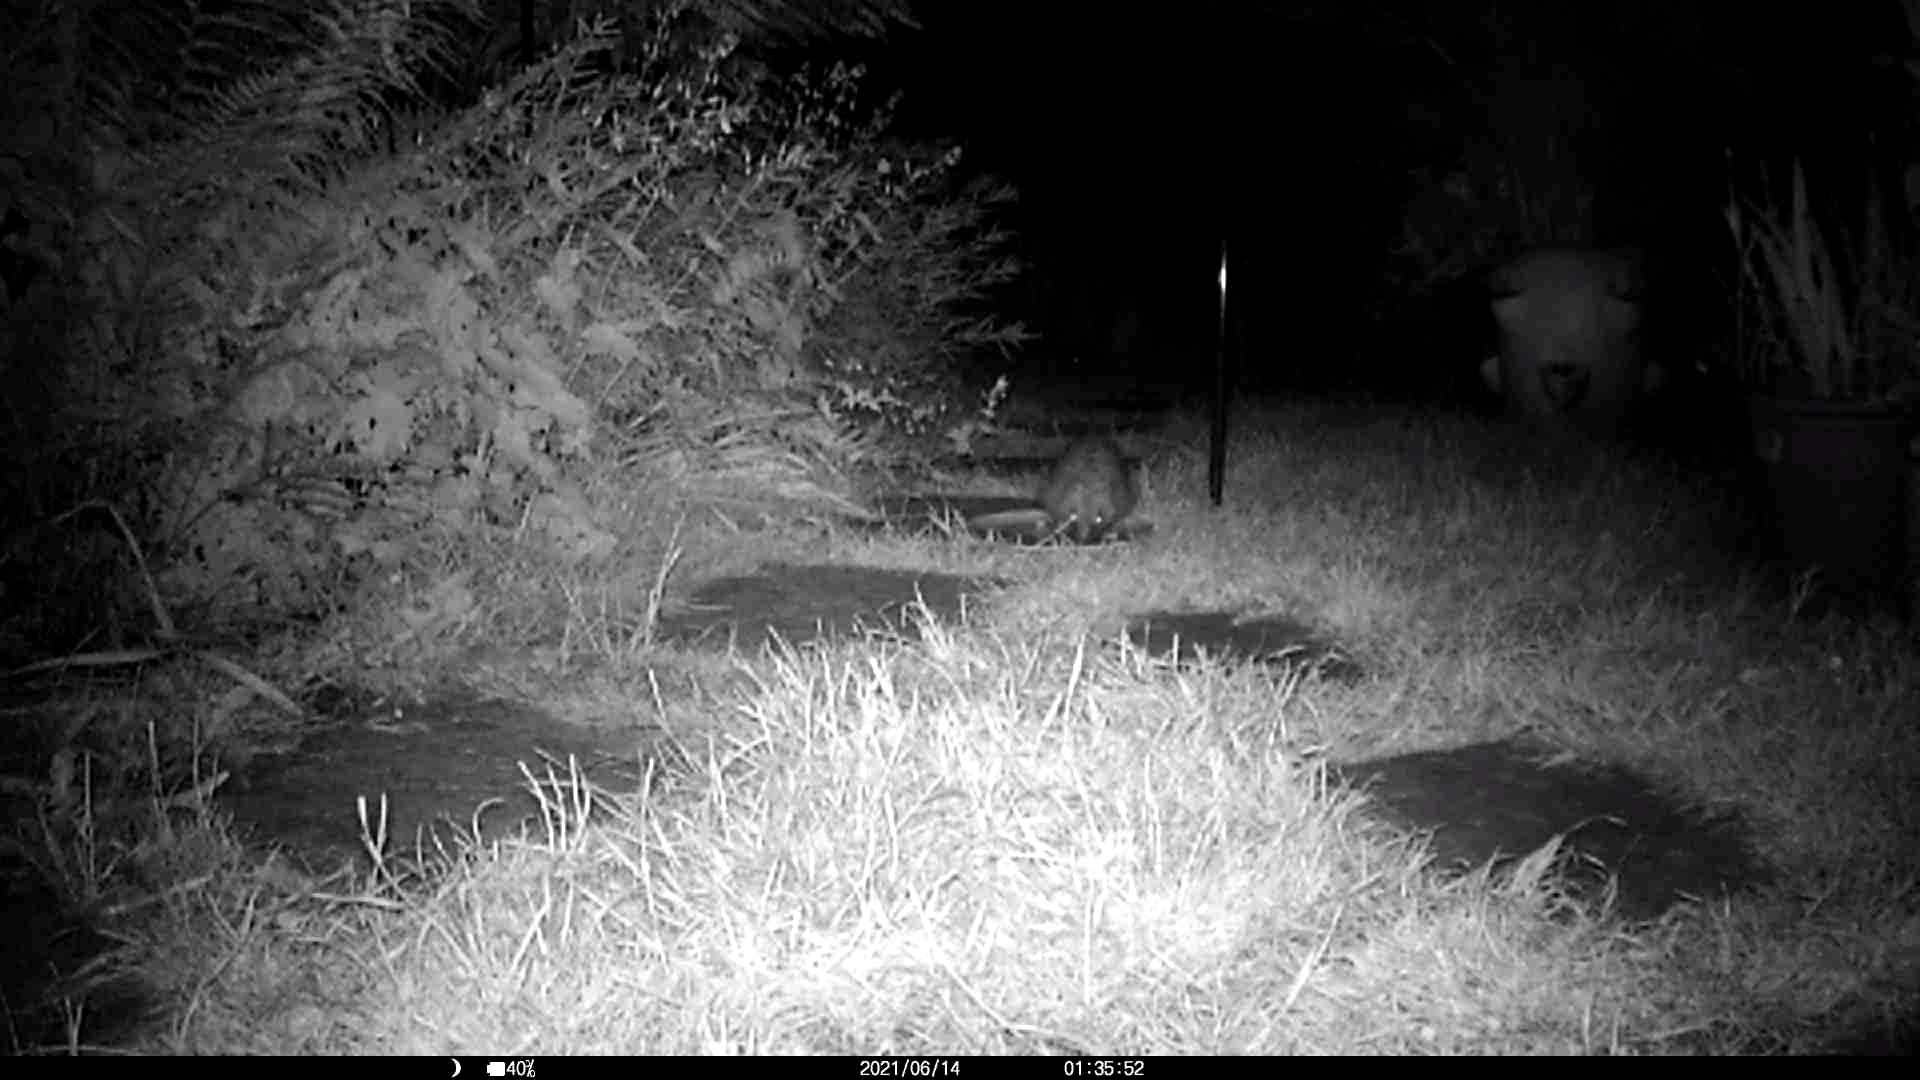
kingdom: Animalia
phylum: Chordata
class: Mammalia
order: Erinaceomorpha
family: Erinaceidae
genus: Erinaceus
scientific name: Erinaceus europaeus
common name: West european hedgehog
